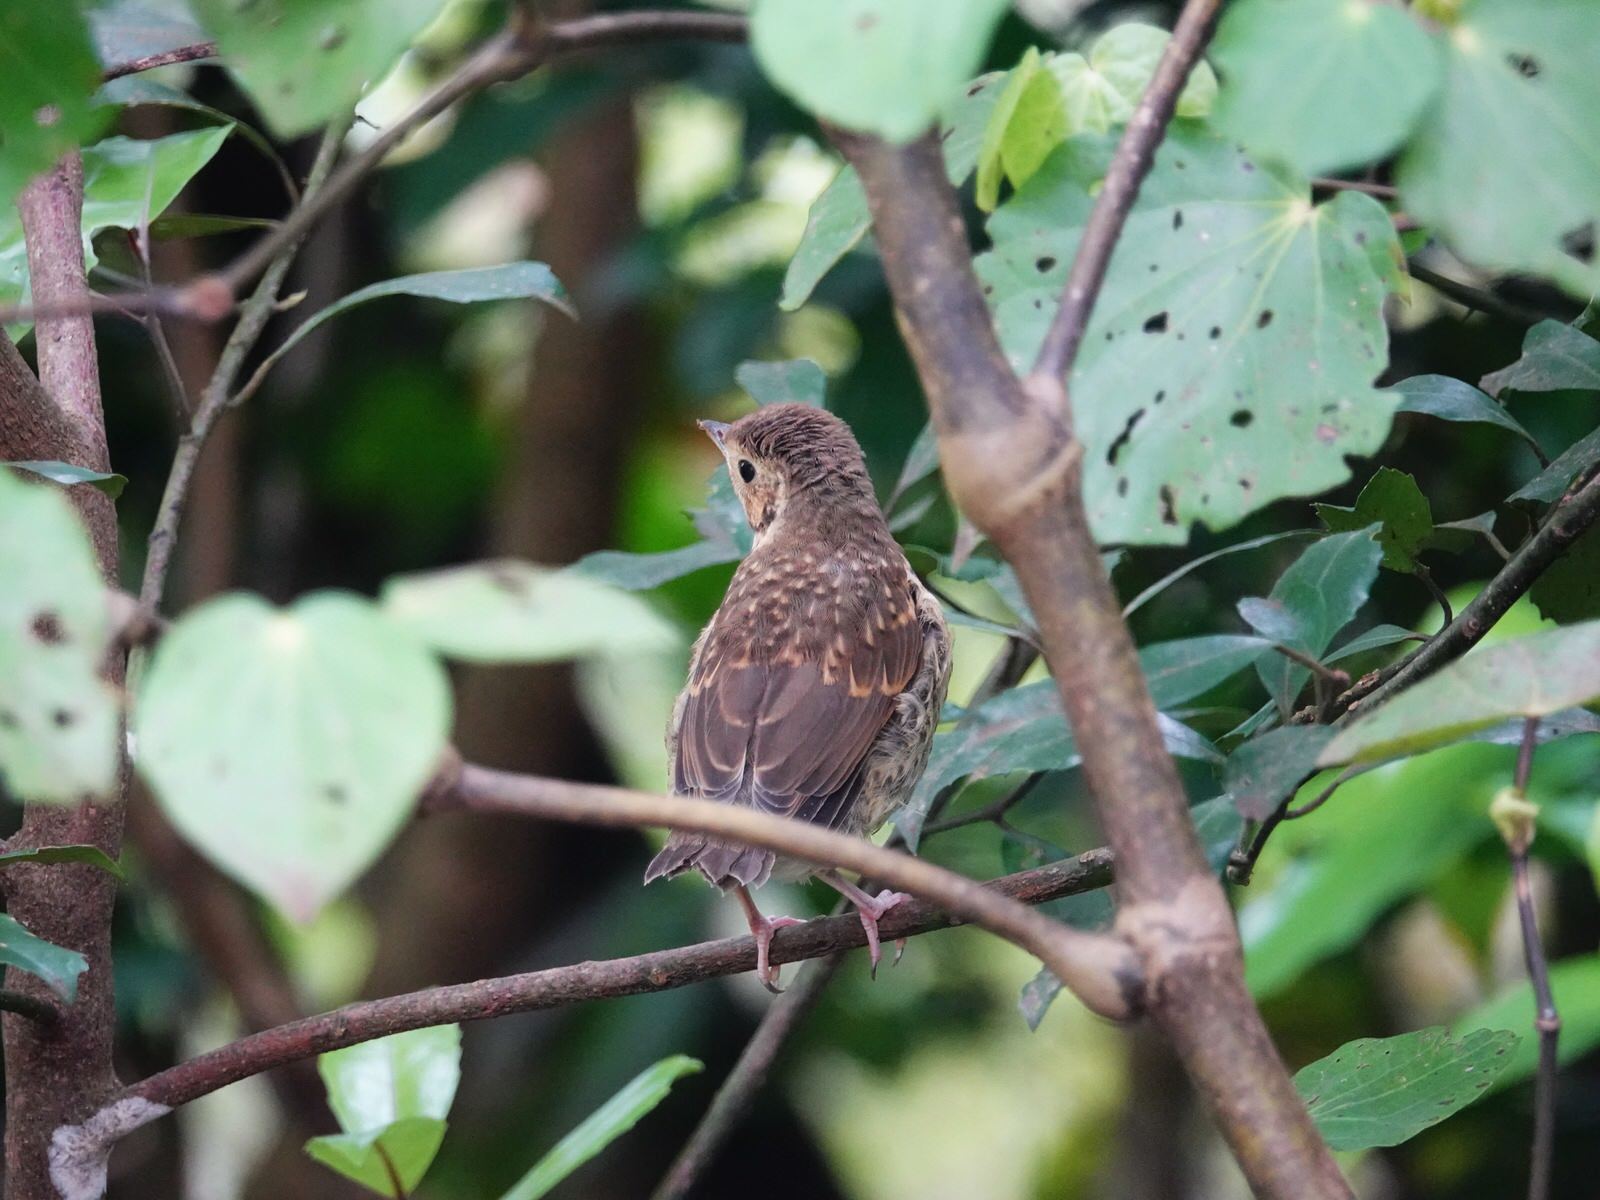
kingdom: Animalia
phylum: Chordata
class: Aves
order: Passeriformes
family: Turdidae
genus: Turdus
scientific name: Turdus philomelos
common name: Song thrush
